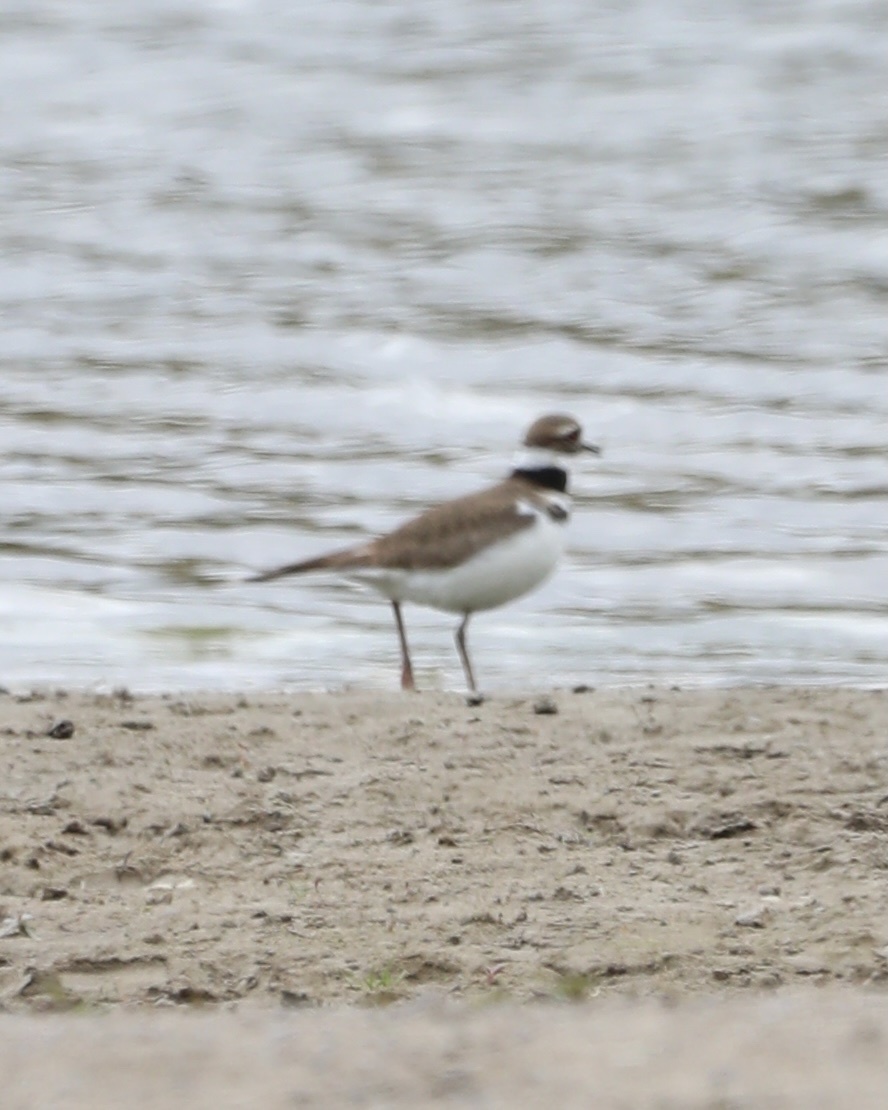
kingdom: Animalia
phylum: Chordata
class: Aves
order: Charadriiformes
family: Charadriidae
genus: Charadrius
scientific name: Charadrius vociferus
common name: Killdeer
